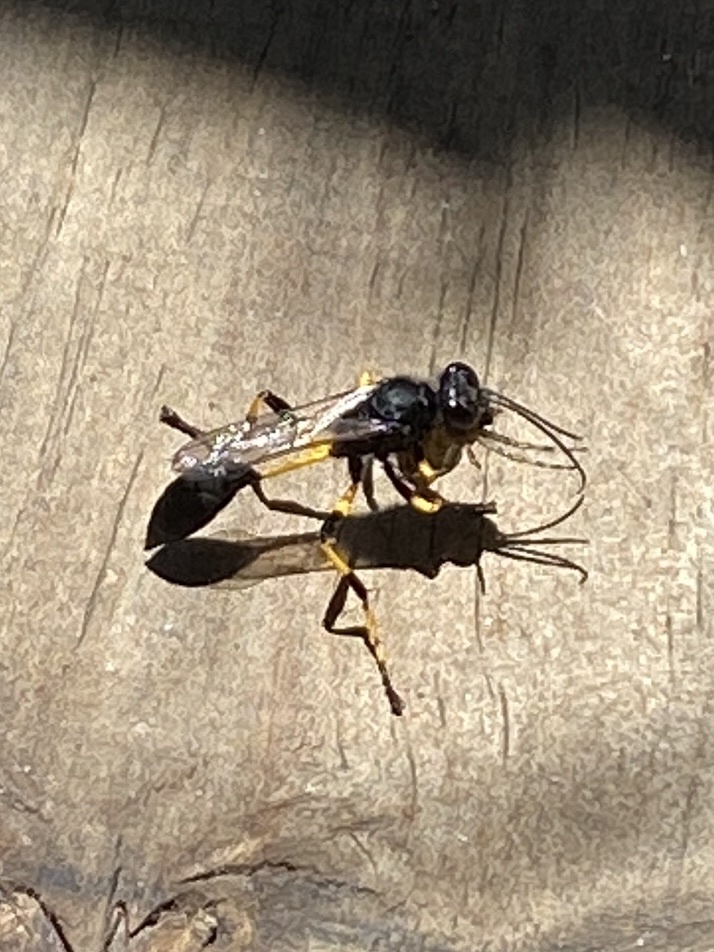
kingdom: Animalia
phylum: Arthropoda
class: Insecta
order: Hymenoptera
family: Sphecidae
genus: Sceliphron
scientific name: Sceliphron spirifex
